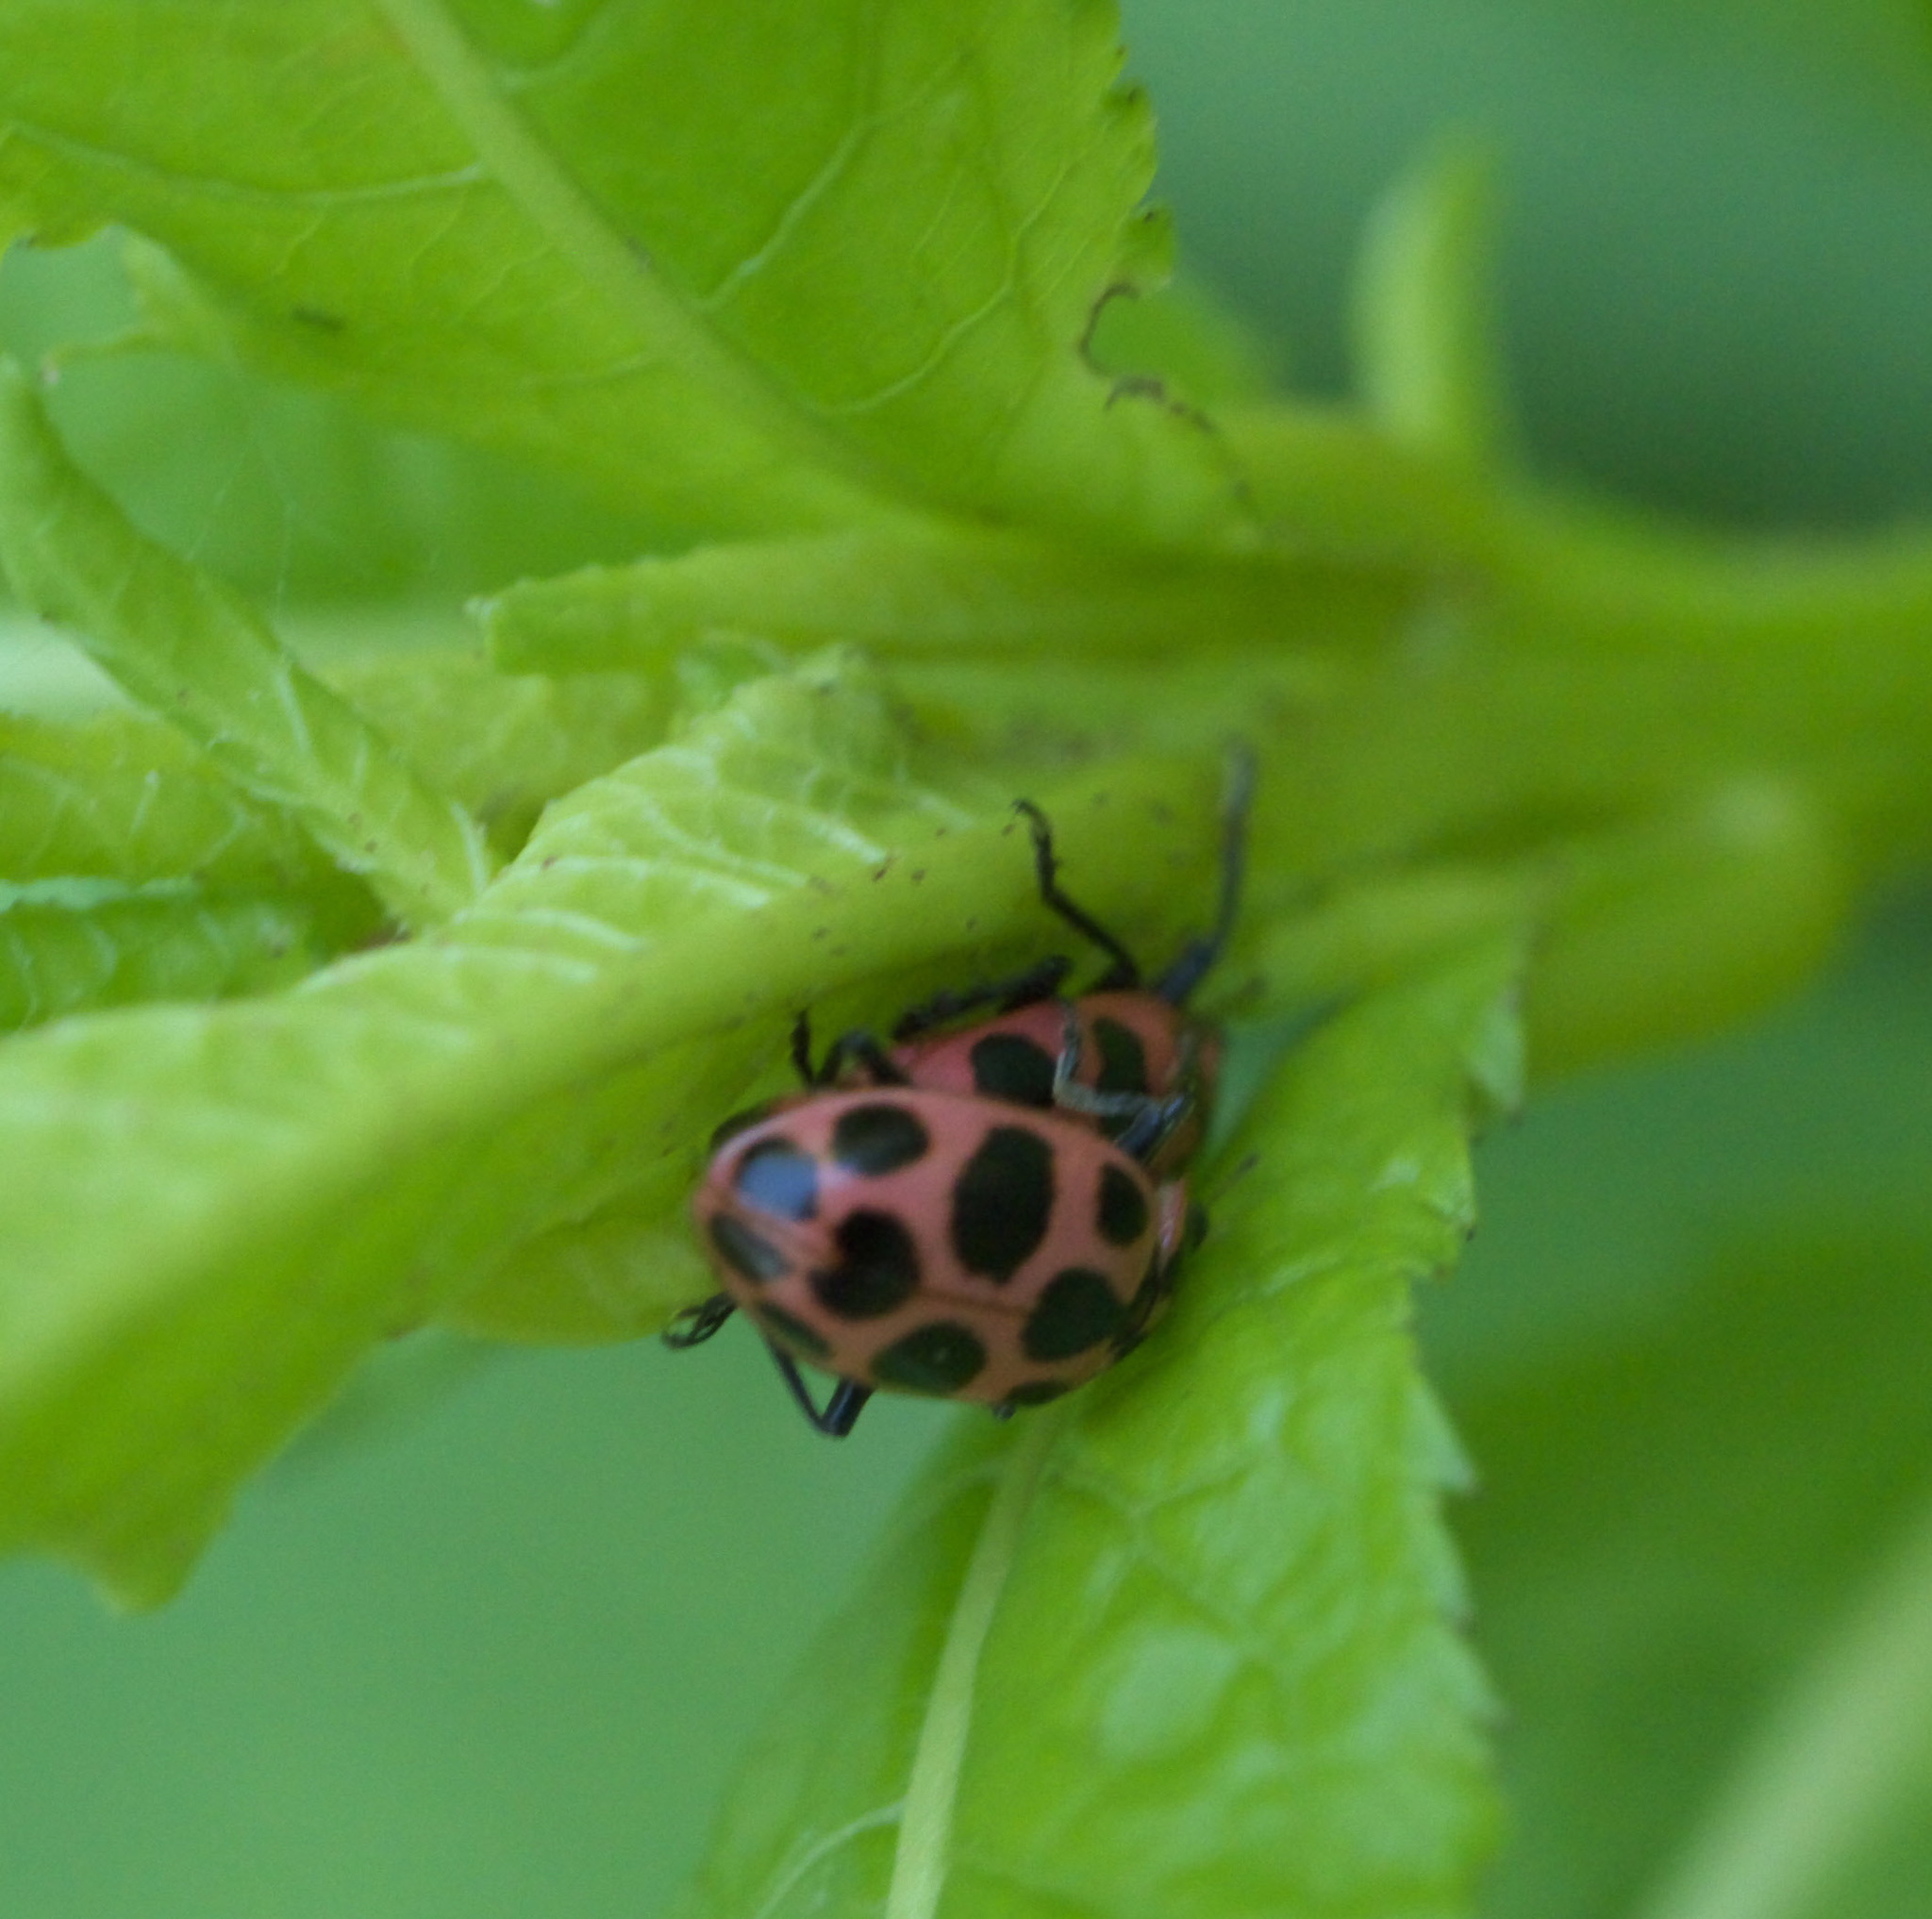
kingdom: Animalia
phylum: Arthropoda
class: Insecta
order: Coleoptera
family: Coccinellidae
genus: Coleomegilla
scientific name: Coleomegilla maculata
